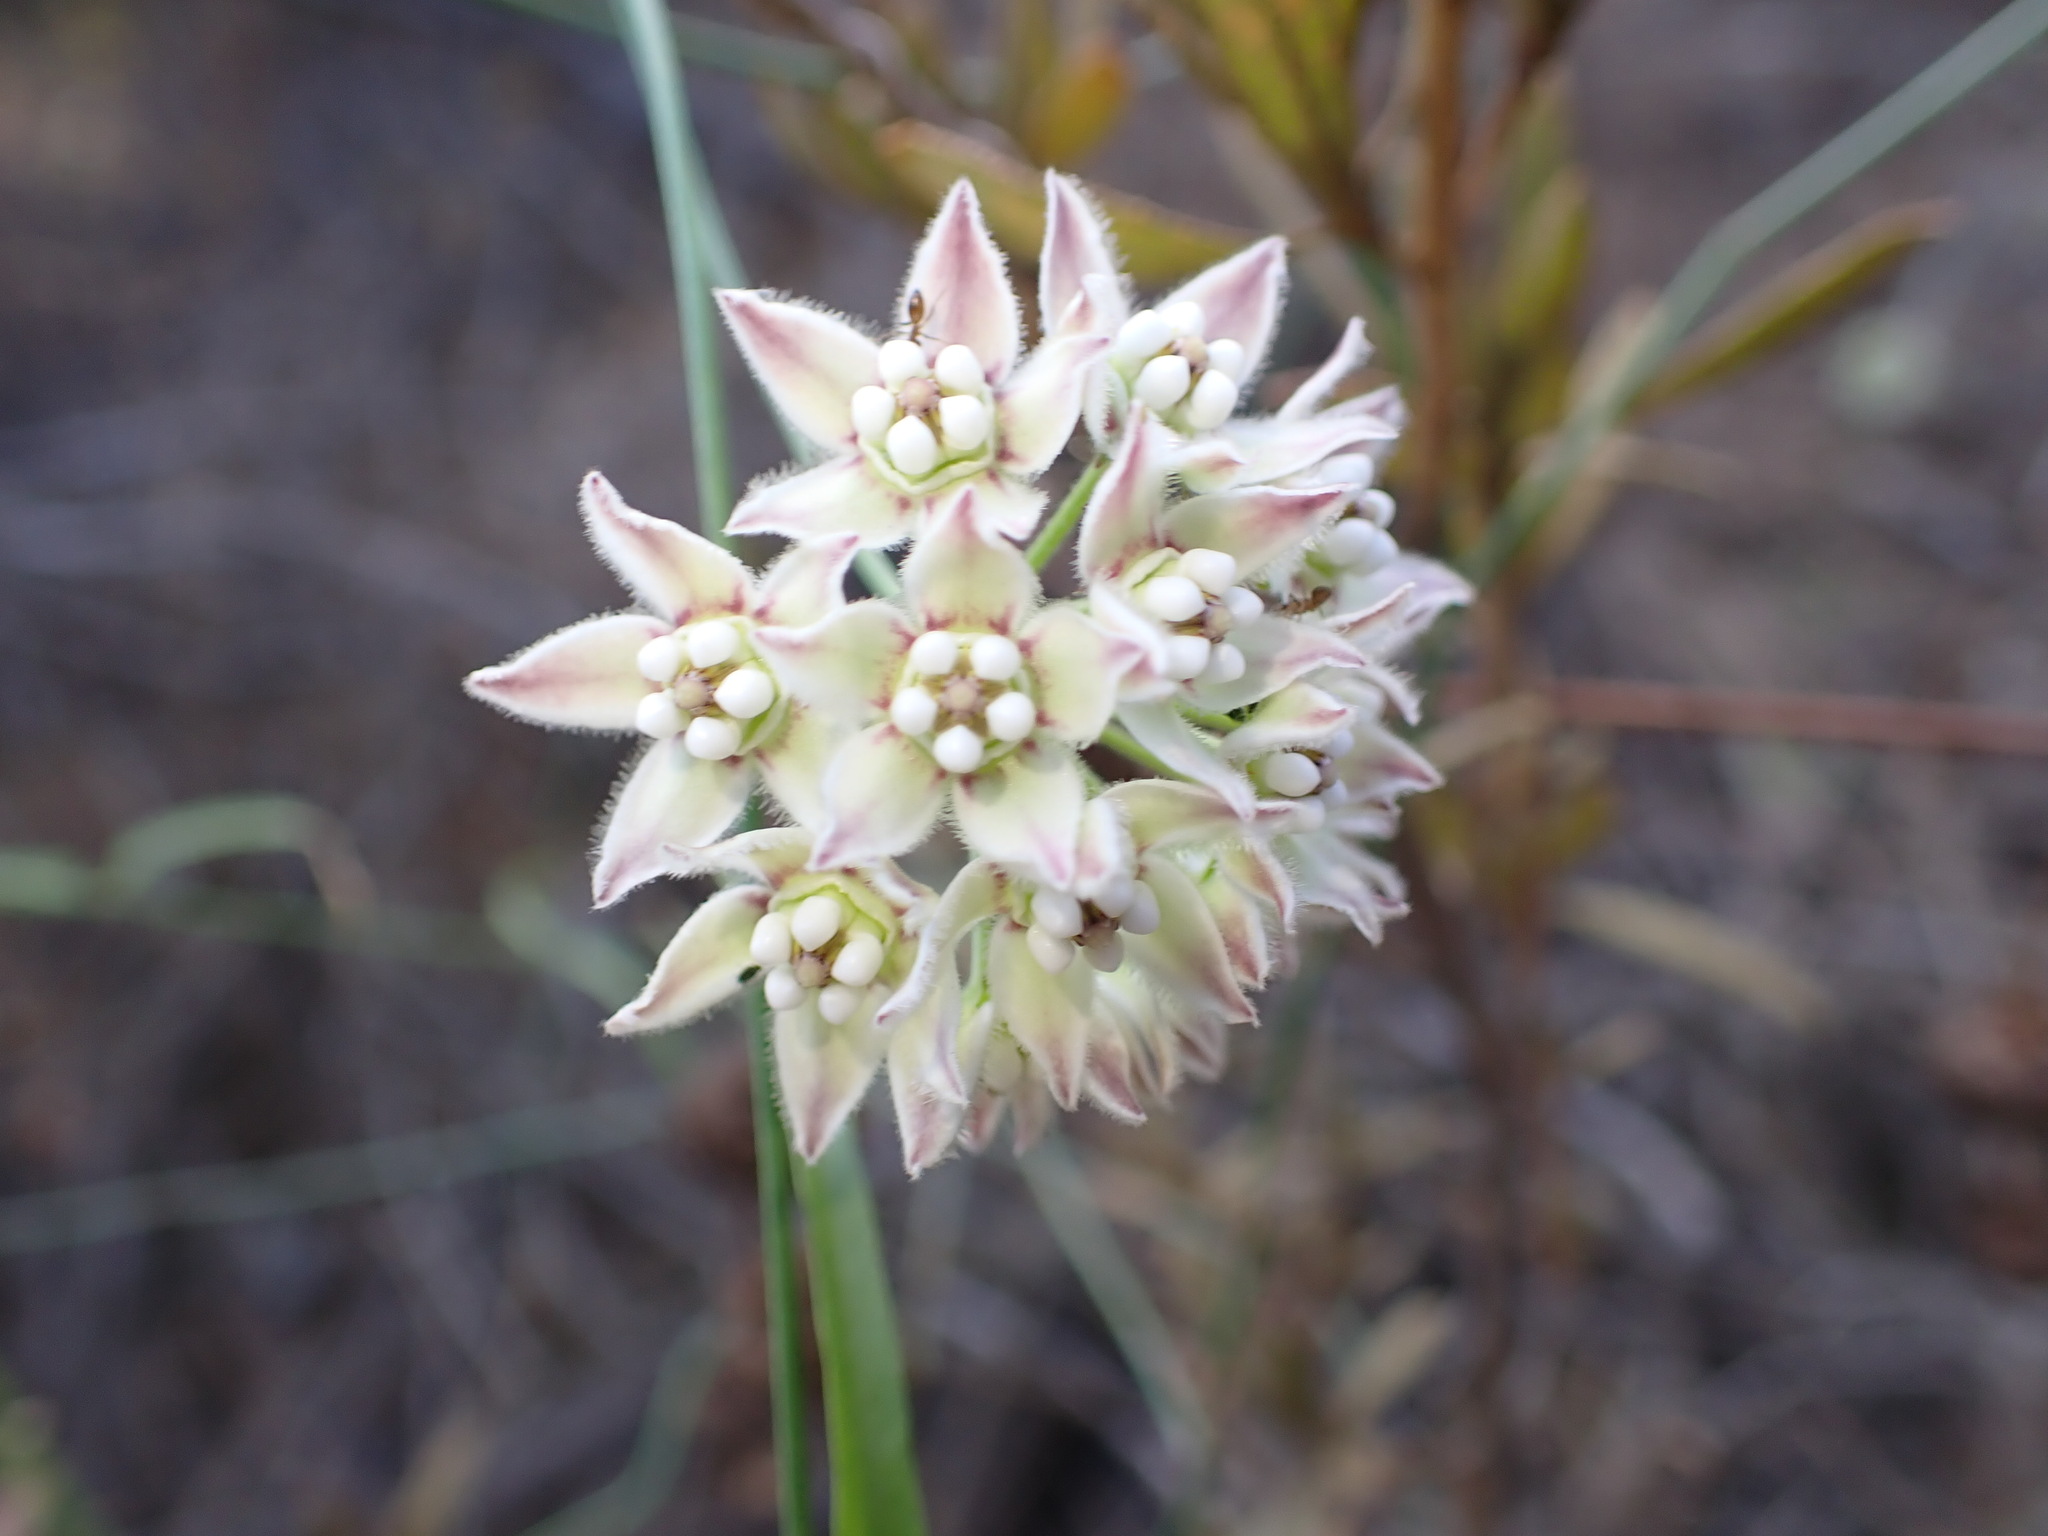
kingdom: Plantae
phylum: Tracheophyta
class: Magnoliopsida
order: Gentianales
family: Apocynaceae
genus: Funastrum
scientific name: Funastrum heterophyllum
